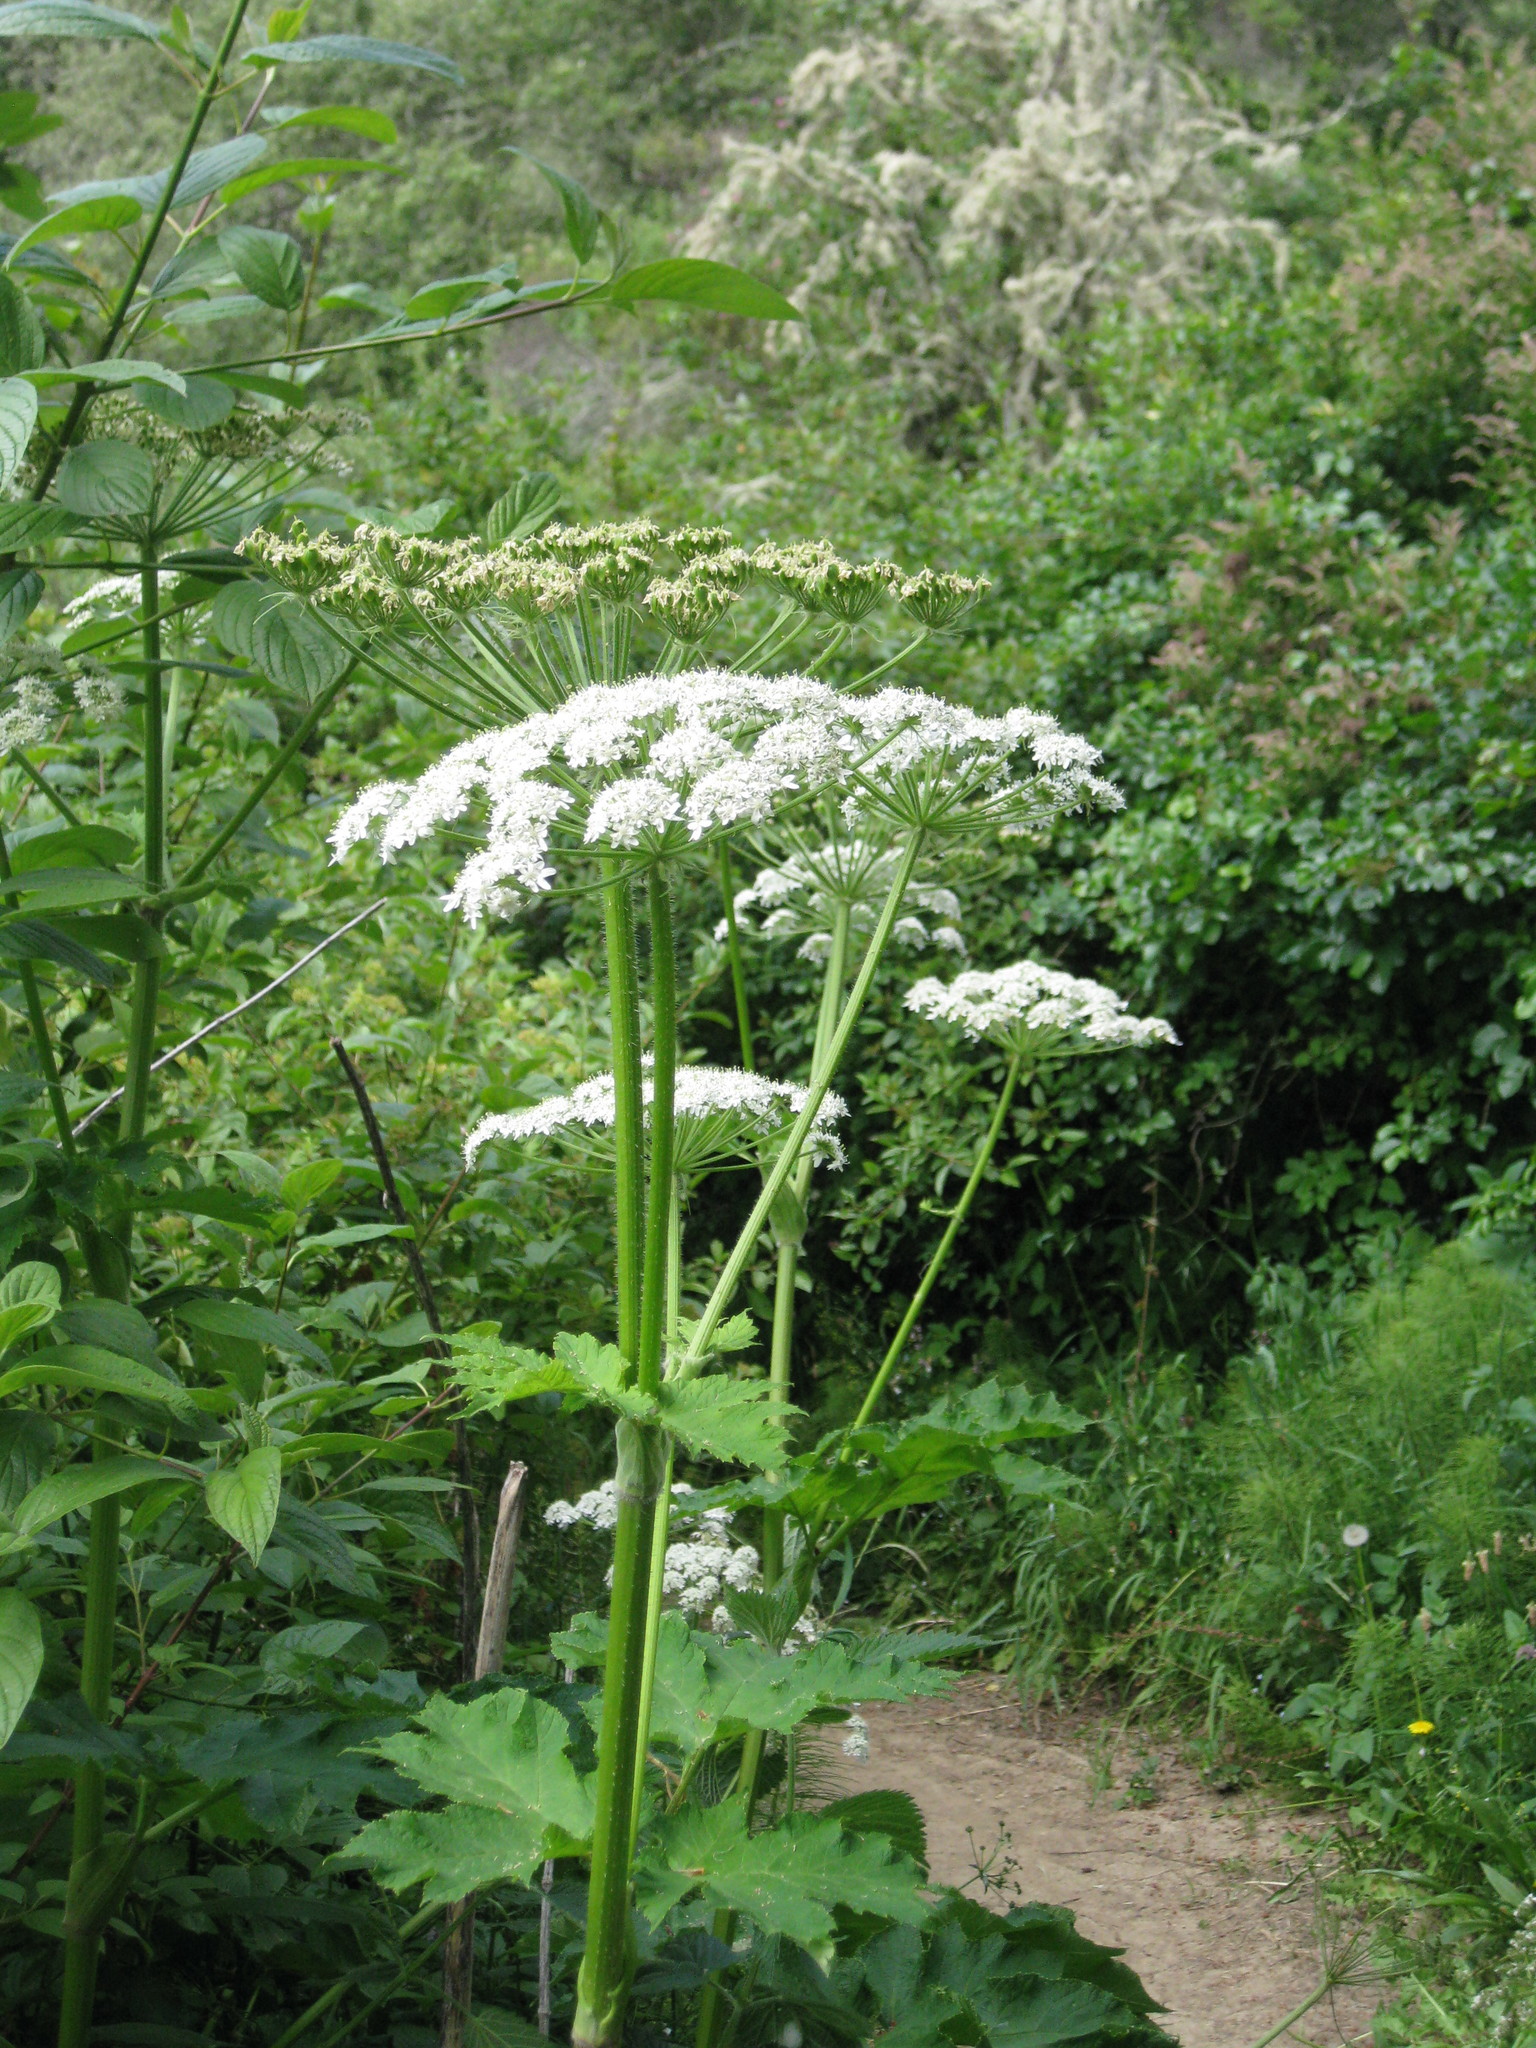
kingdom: Plantae
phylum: Tracheophyta
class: Magnoliopsida
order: Apiales
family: Apiaceae
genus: Heracleum
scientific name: Heracleum maximum
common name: American cow parsnip
